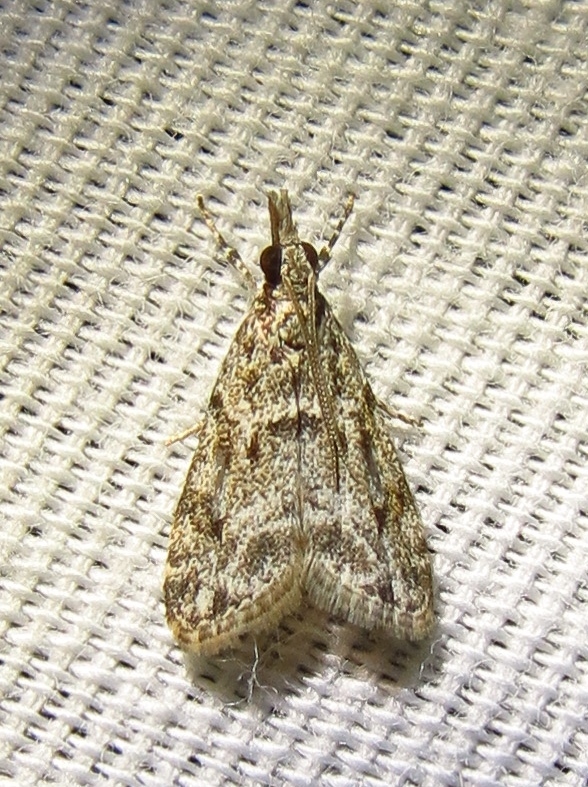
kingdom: Animalia
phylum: Arthropoda
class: Insecta
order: Lepidoptera
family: Crambidae
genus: Eudonia
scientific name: Eudonia heterosalis
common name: Mcdunnough's eudonia
